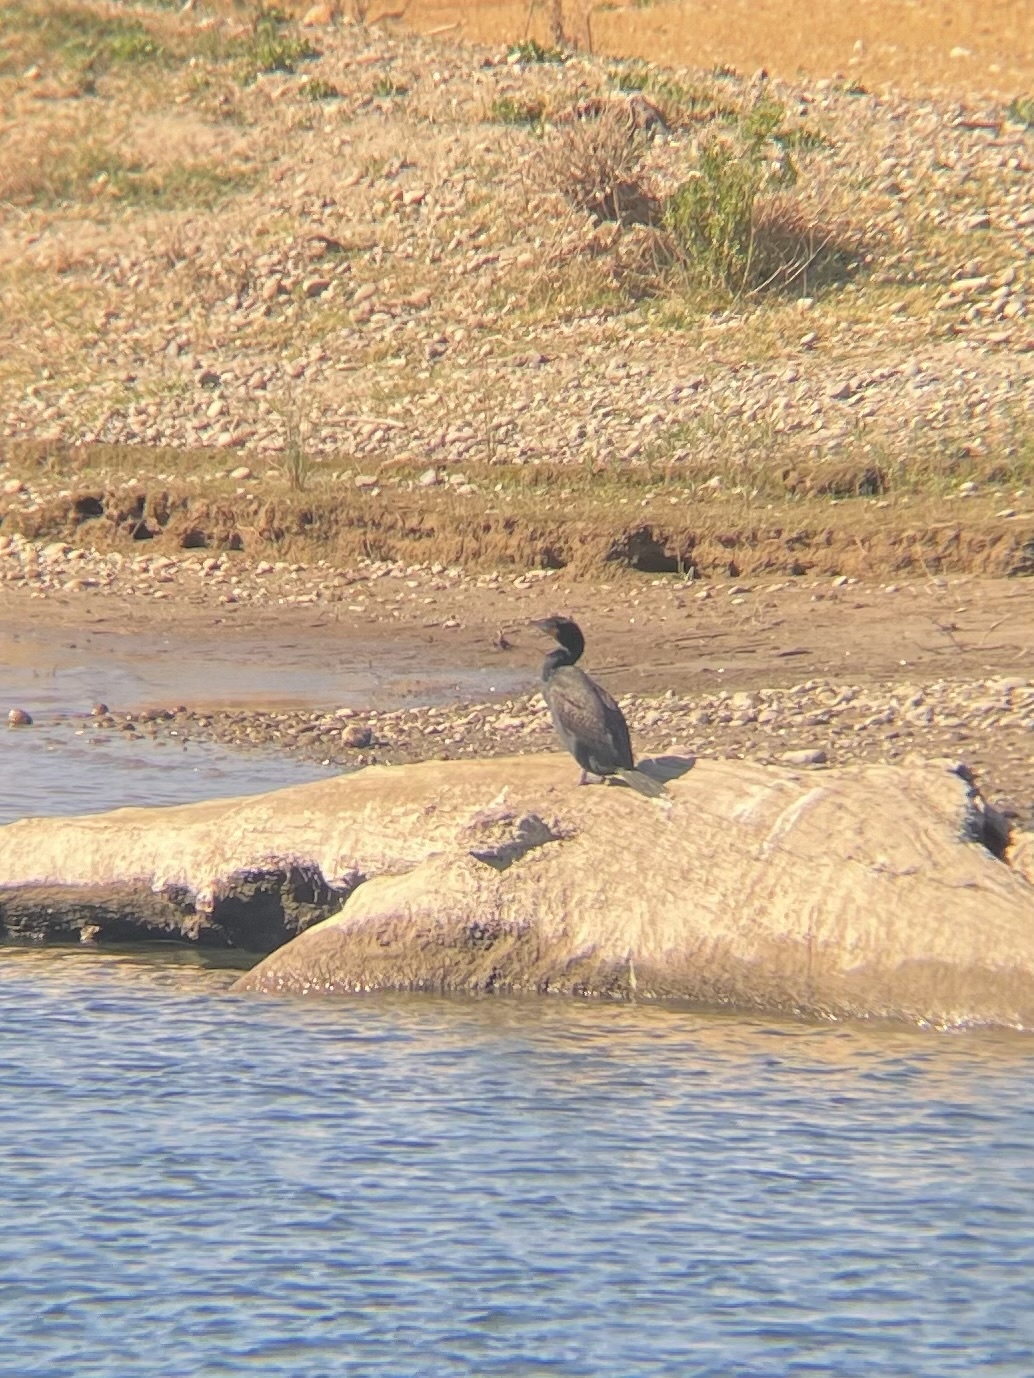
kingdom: Animalia
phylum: Chordata
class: Aves
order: Suliformes
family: Phalacrocoracidae
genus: Phalacrocorax
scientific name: Phalacrocorax auritus
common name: Double-crested cormorant
